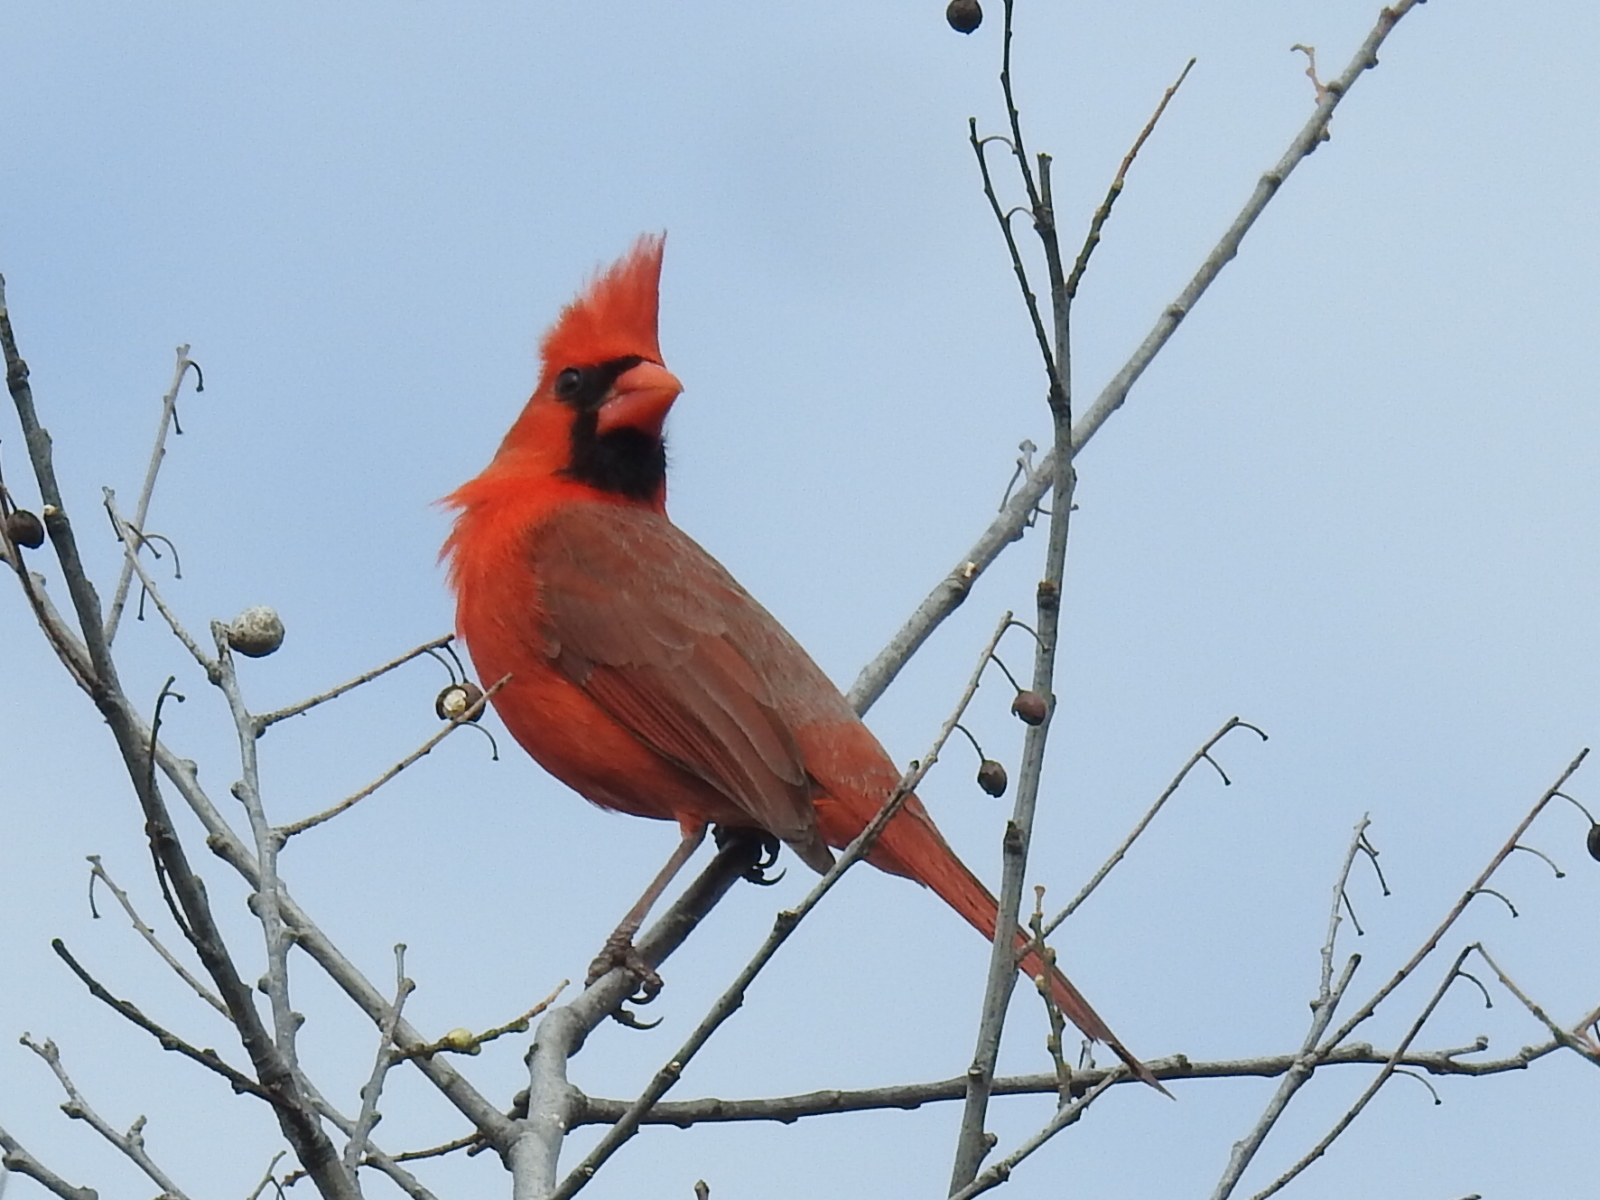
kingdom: Animalia
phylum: Chordata
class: Aves
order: Passeriformes
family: Cardinalidae
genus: Cardinalis
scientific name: Cardinalis cardinalis
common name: Northern cardinal
